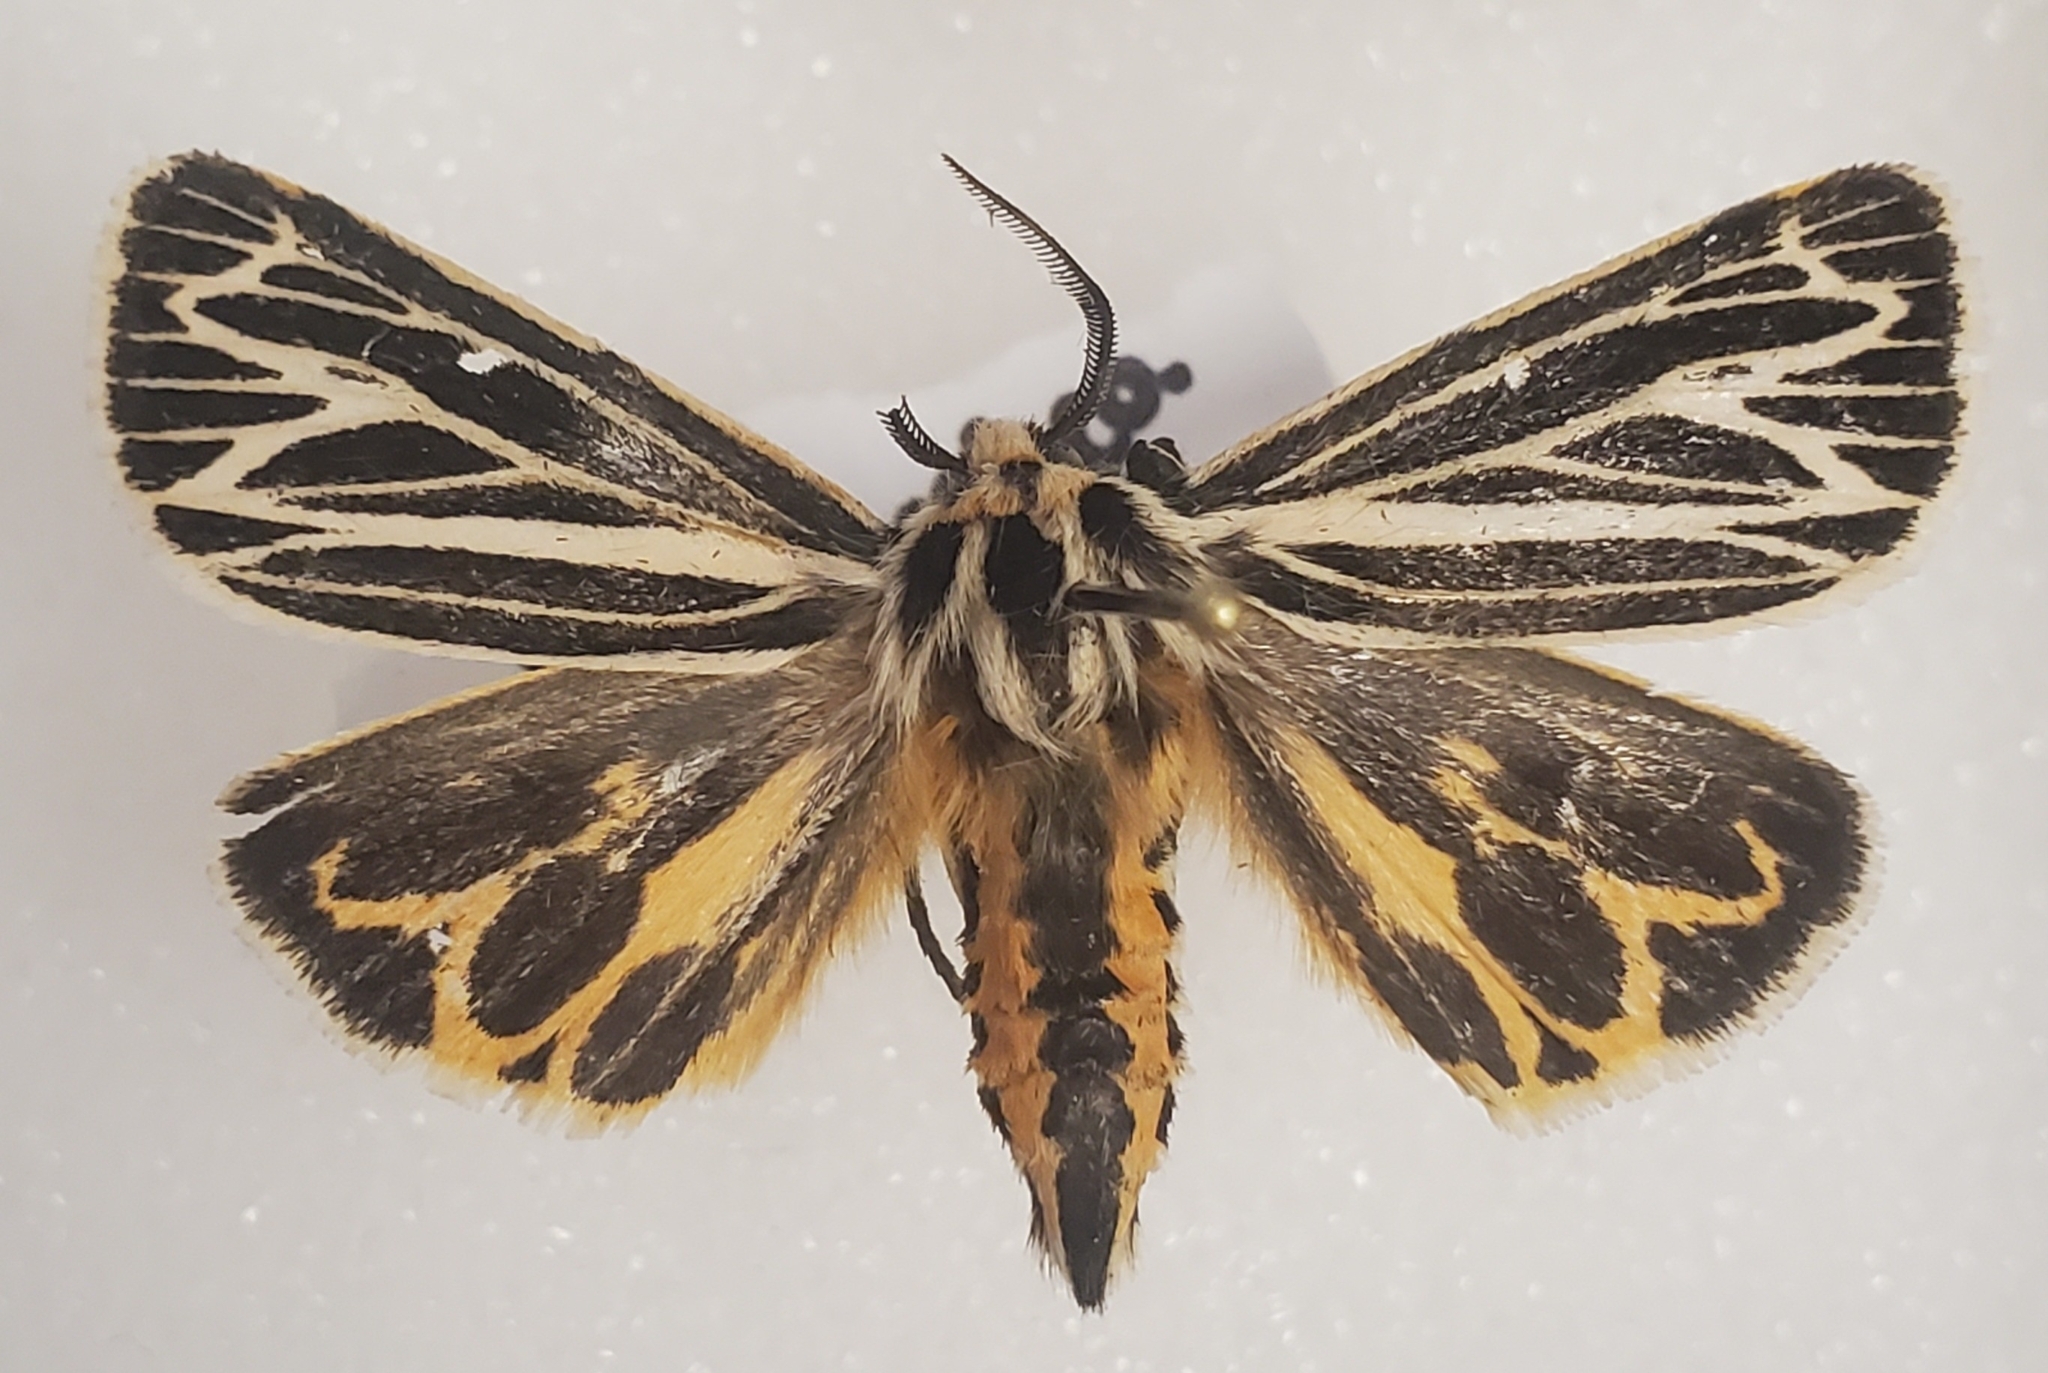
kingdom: Animalia
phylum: Arthropoda
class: Insecta
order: Lepidoptera
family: Erebidae
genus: Grammia
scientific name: Grammia virguncula
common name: Little tiger moth
